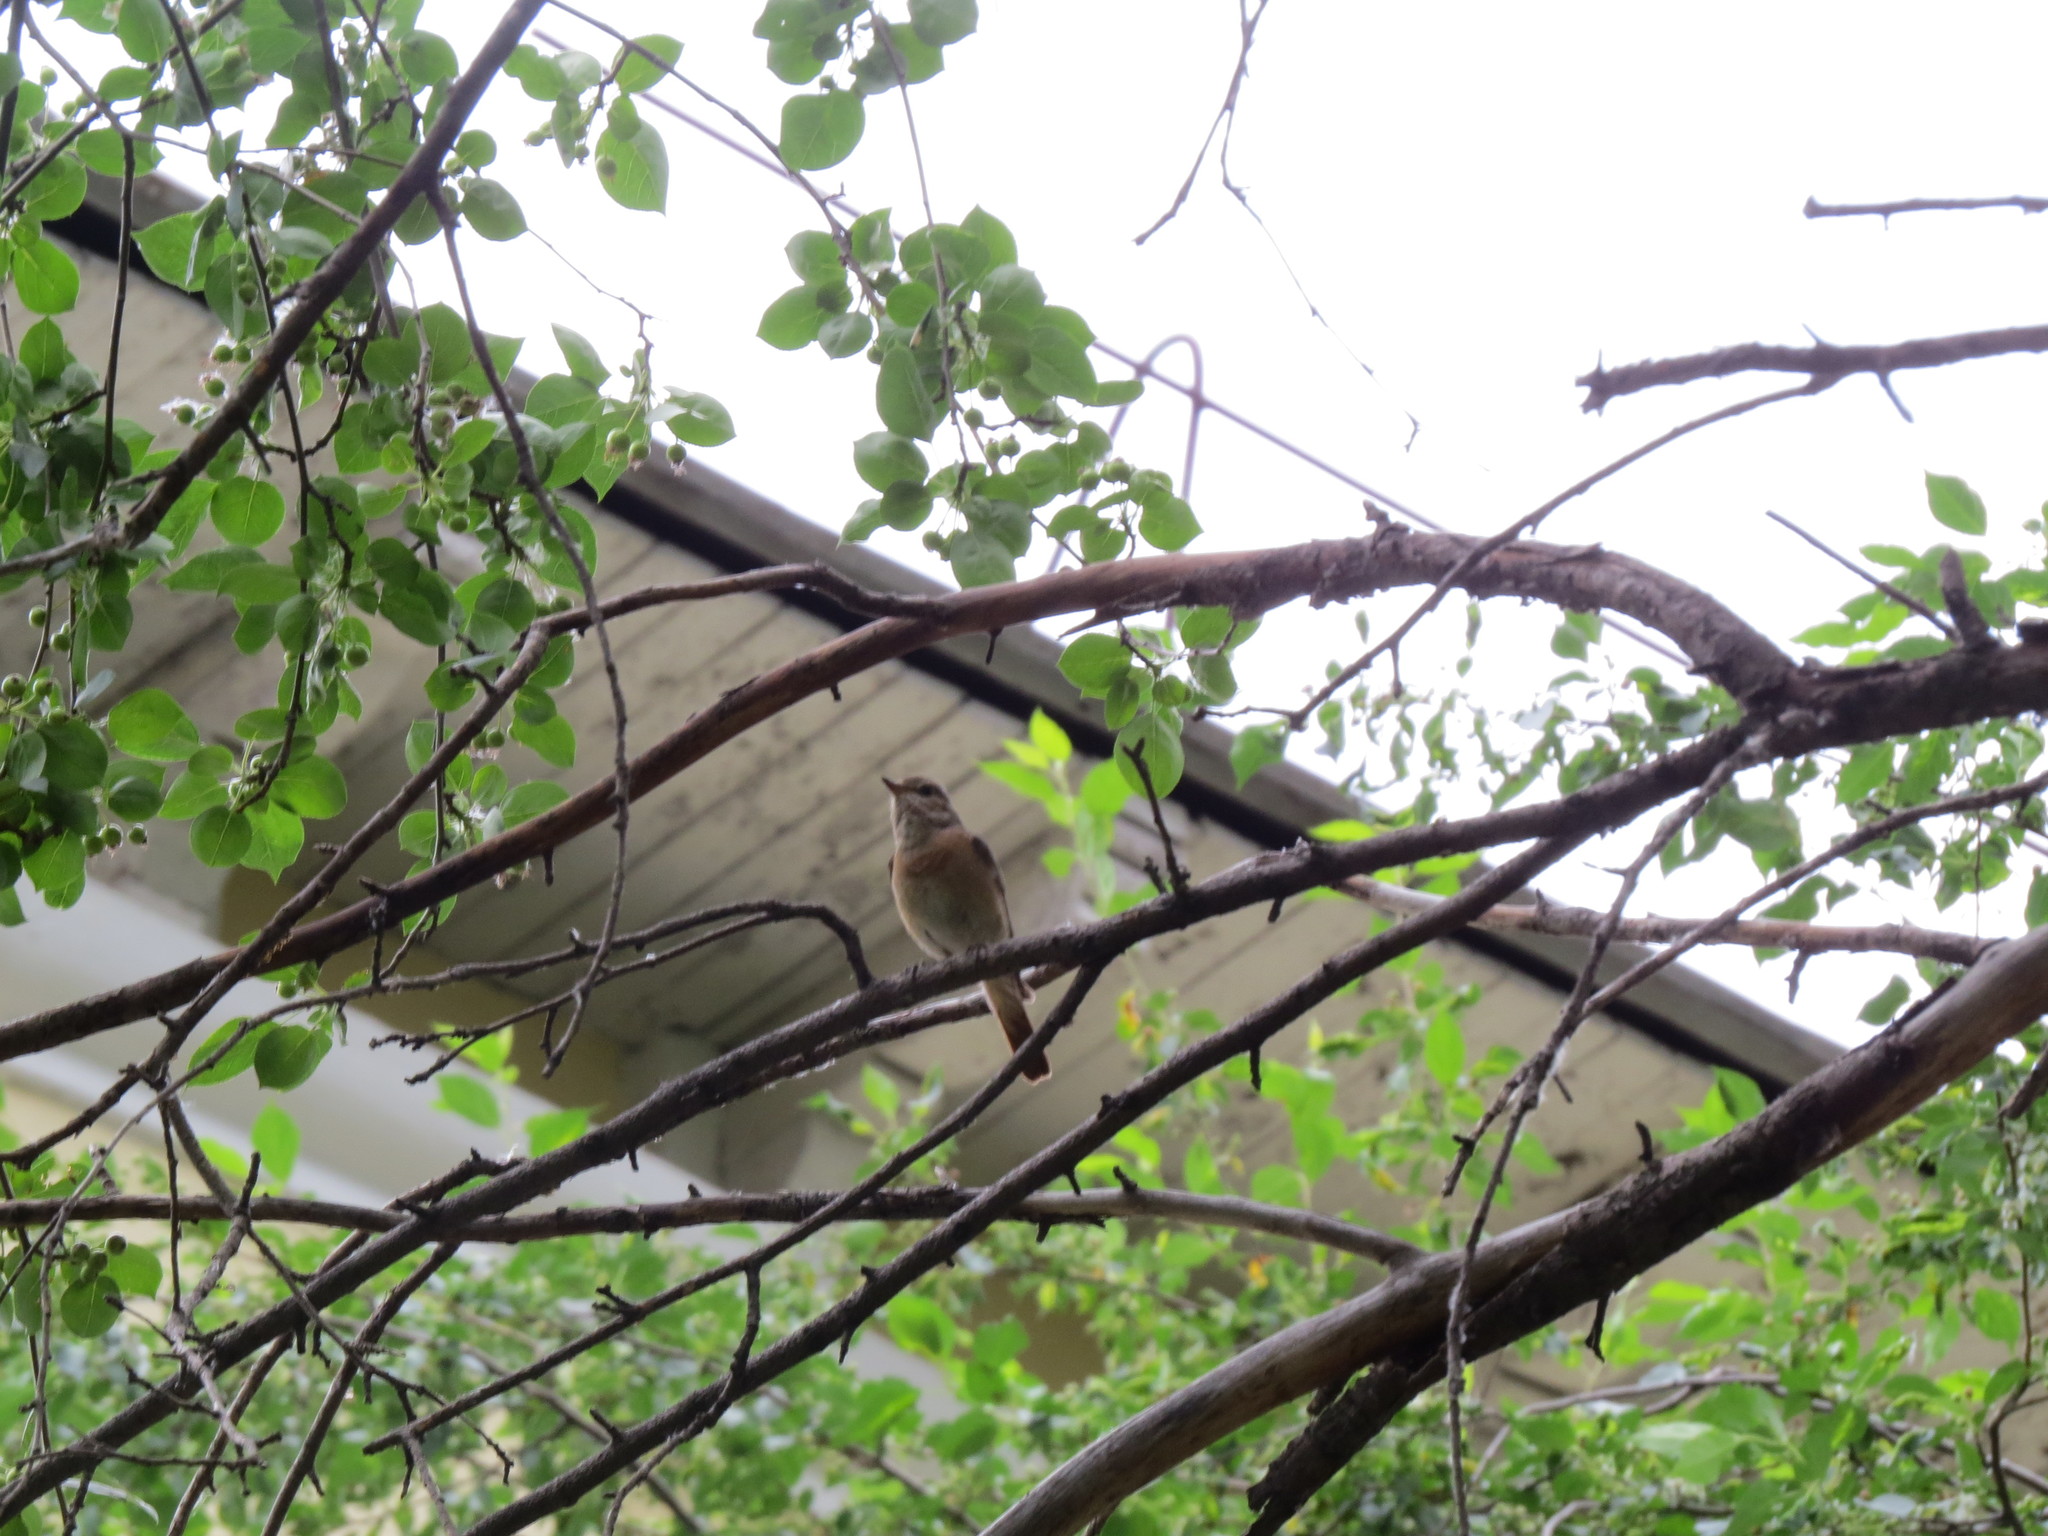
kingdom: Animalia
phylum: Chordata
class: Aves
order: Passeriformes
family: Muscicapidae
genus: Phoenicurus
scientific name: Phoenicurus phoenicurus
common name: Common redstart
